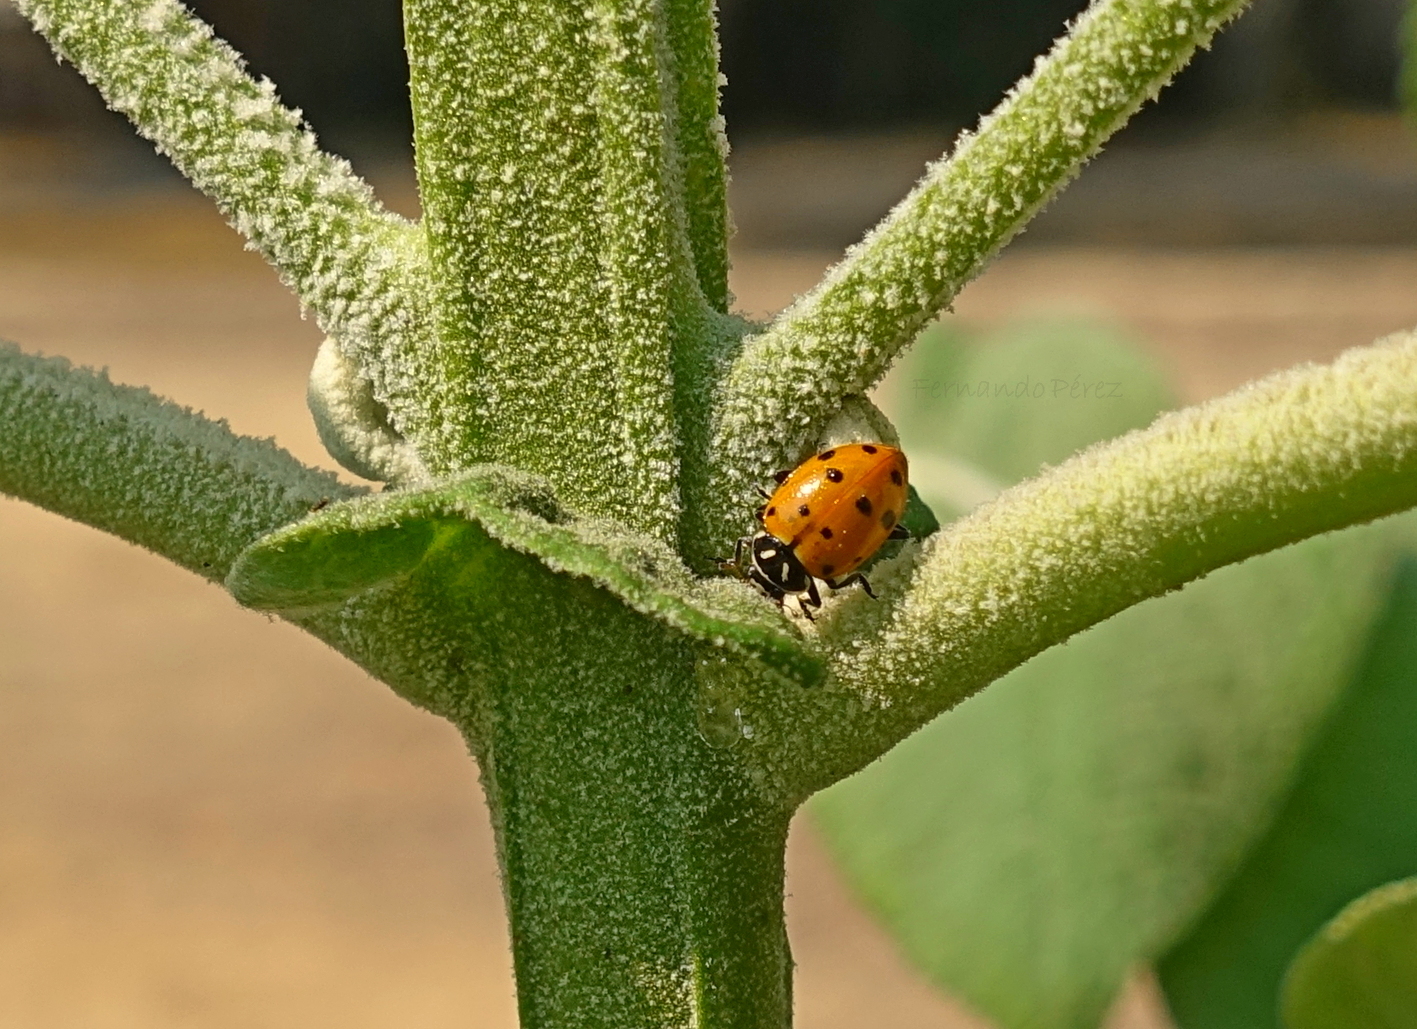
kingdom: Animalia
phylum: Arthropoda
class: Insecta
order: Coleoptera
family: Coccinellidae
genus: Hippodamia
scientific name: Hippodamia convergens
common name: Convergent lady beetle
